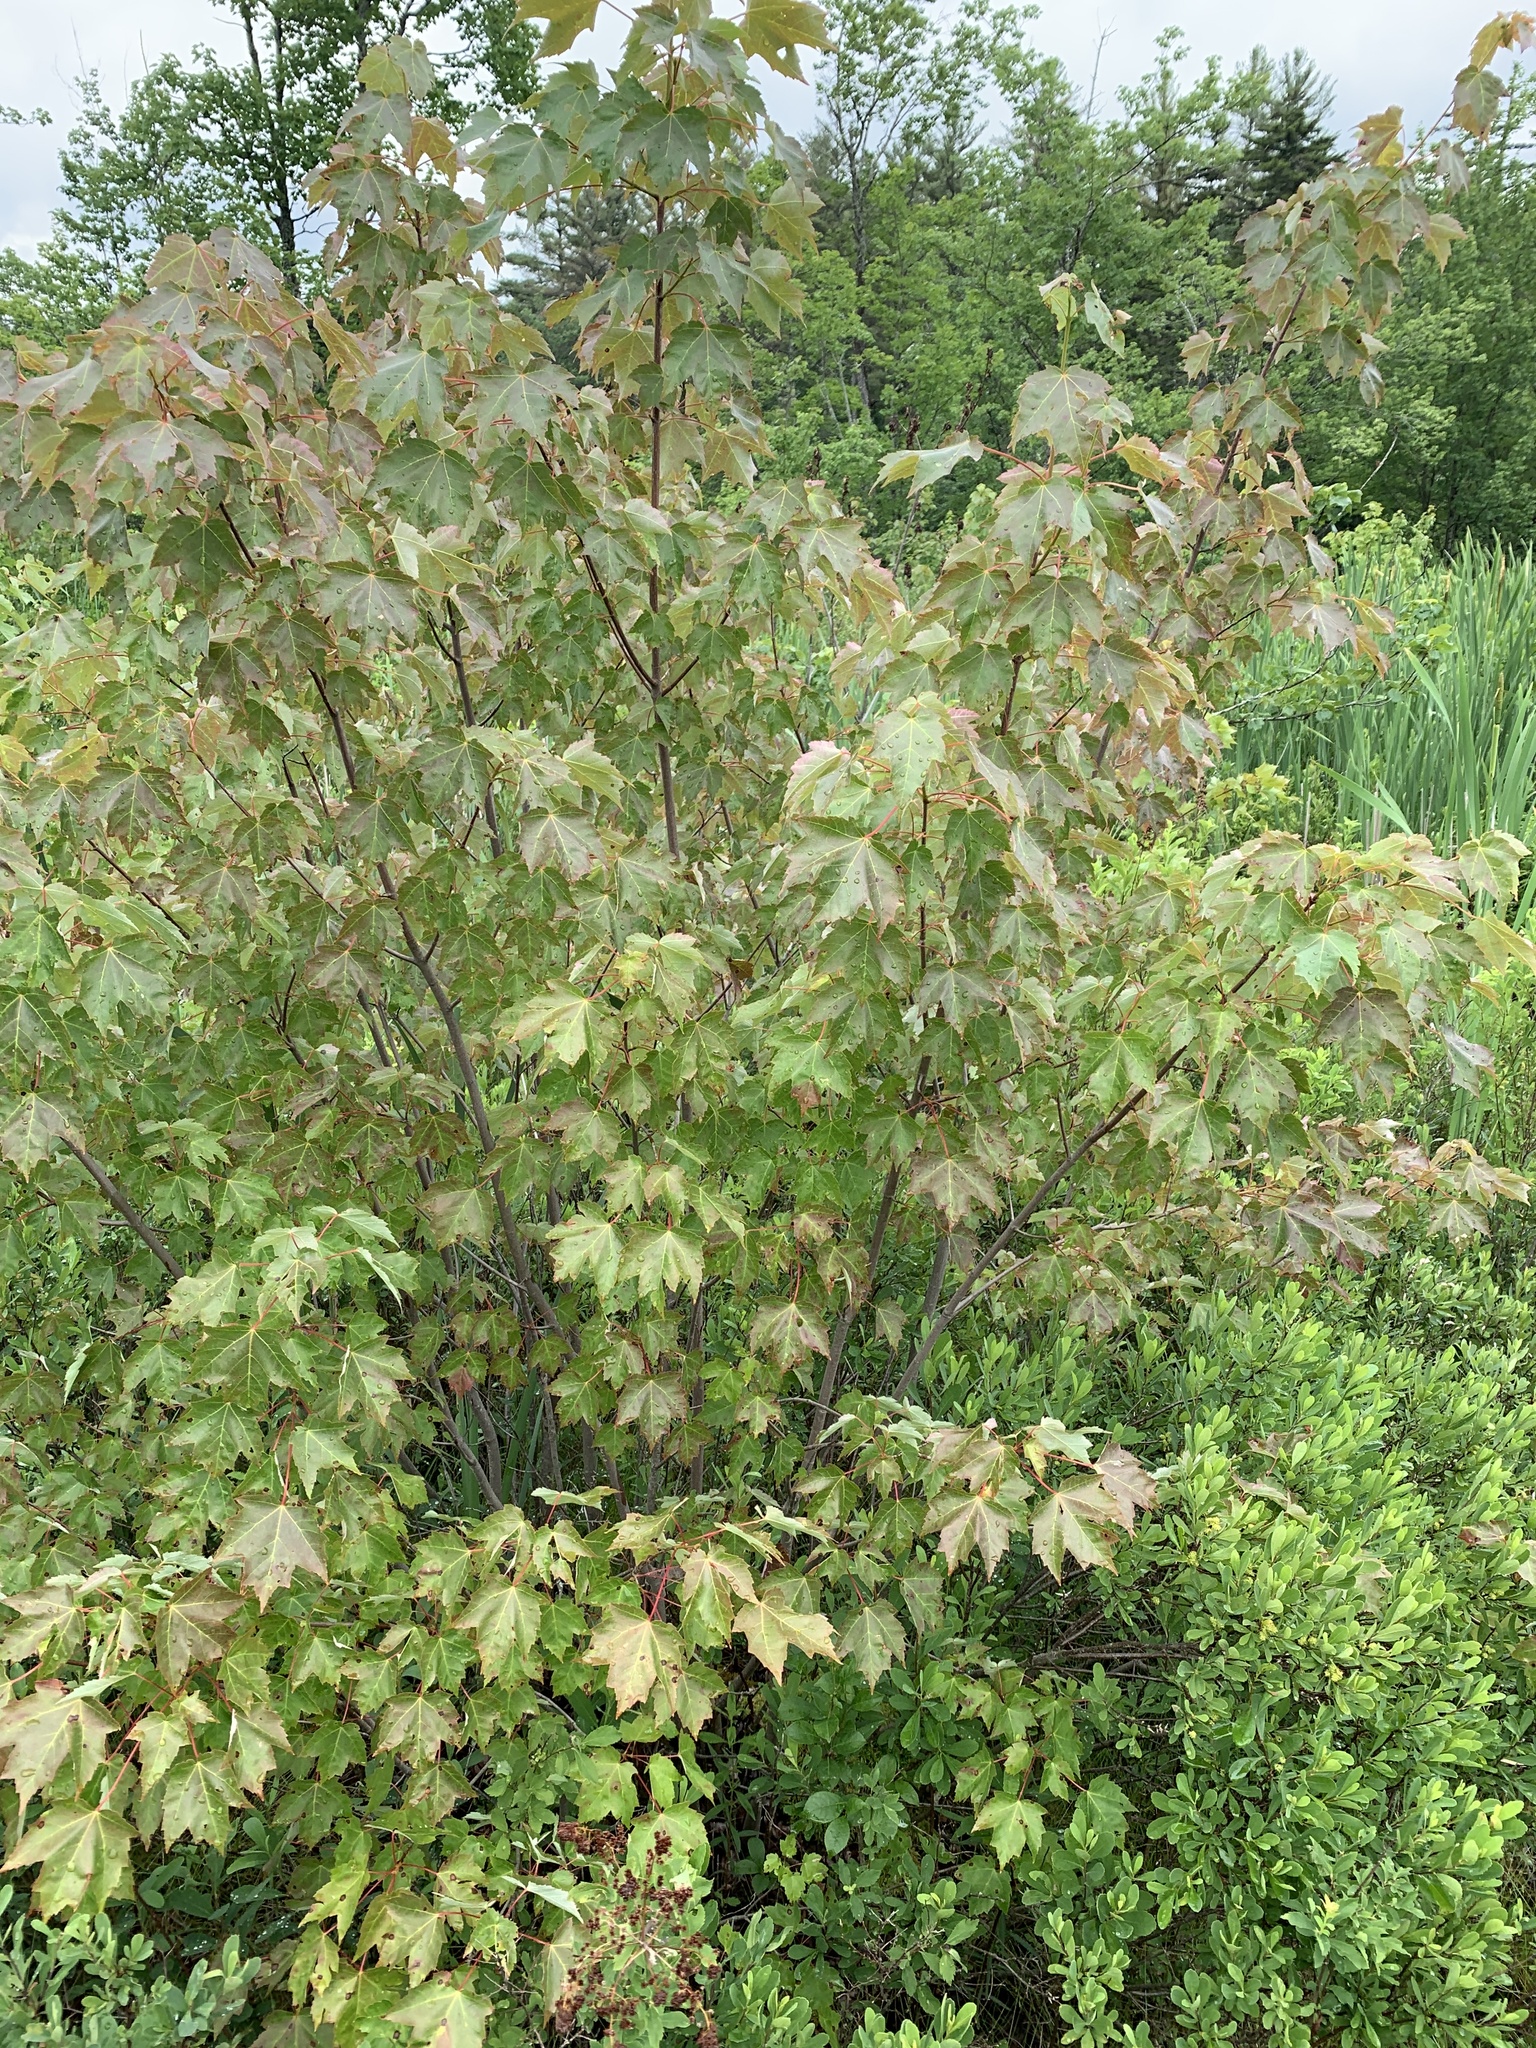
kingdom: Plantae
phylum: Tracheophyta
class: Magnoliopsida
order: Sapindales
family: Sapindaceae
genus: Acer
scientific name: Acer rubrum
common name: Red maple
